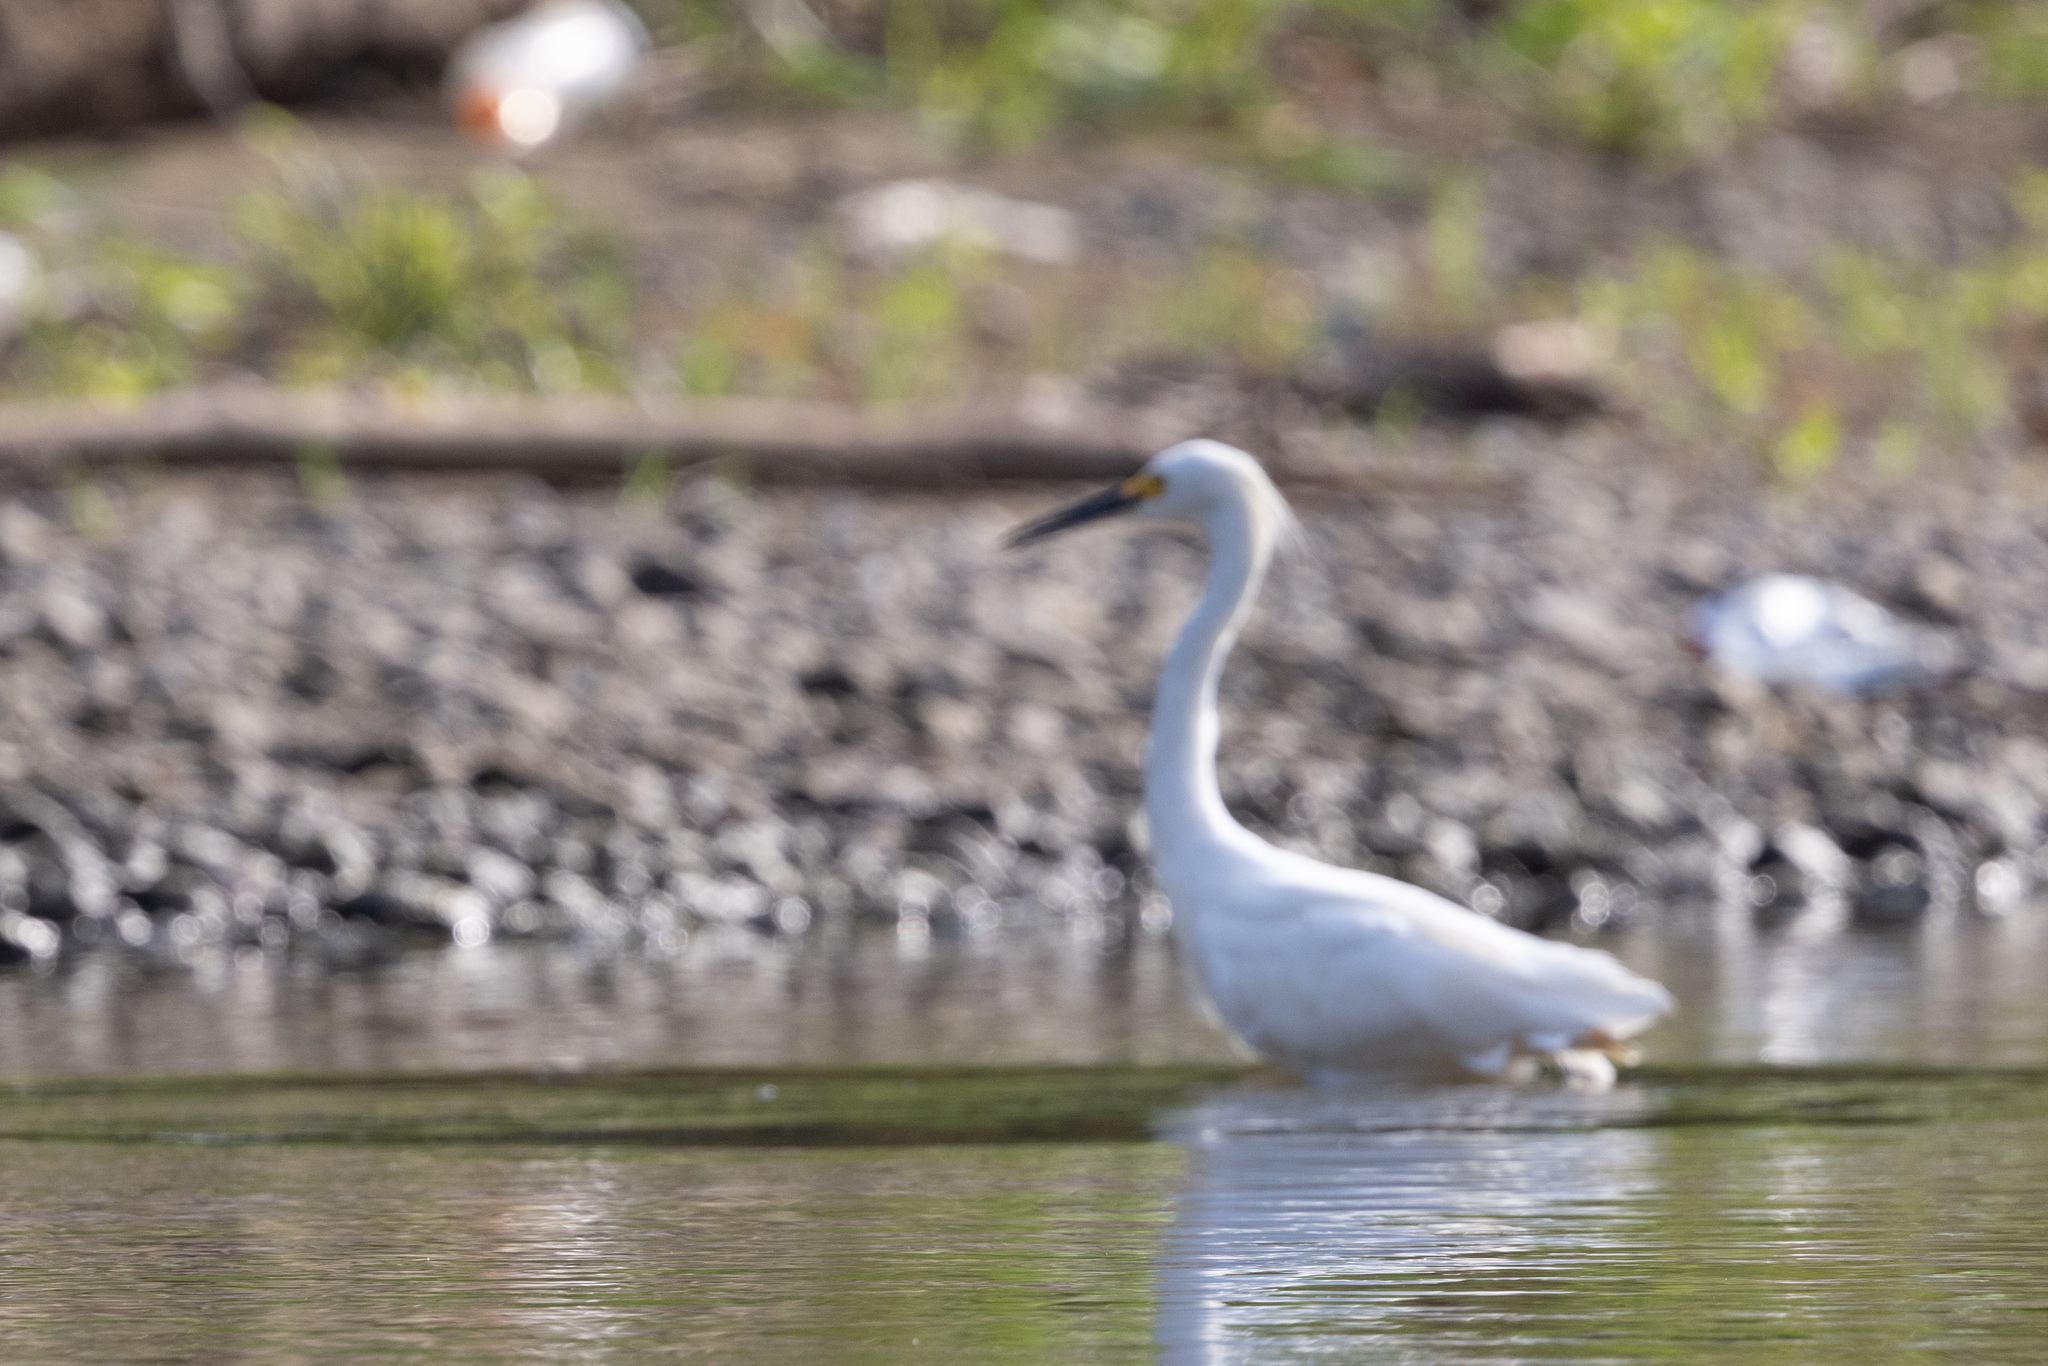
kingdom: Animalia
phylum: Chordata
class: Aves
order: Pelecaniformes
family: Ardeidae
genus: Egretta
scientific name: Egretta thula
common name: Snowy egret
